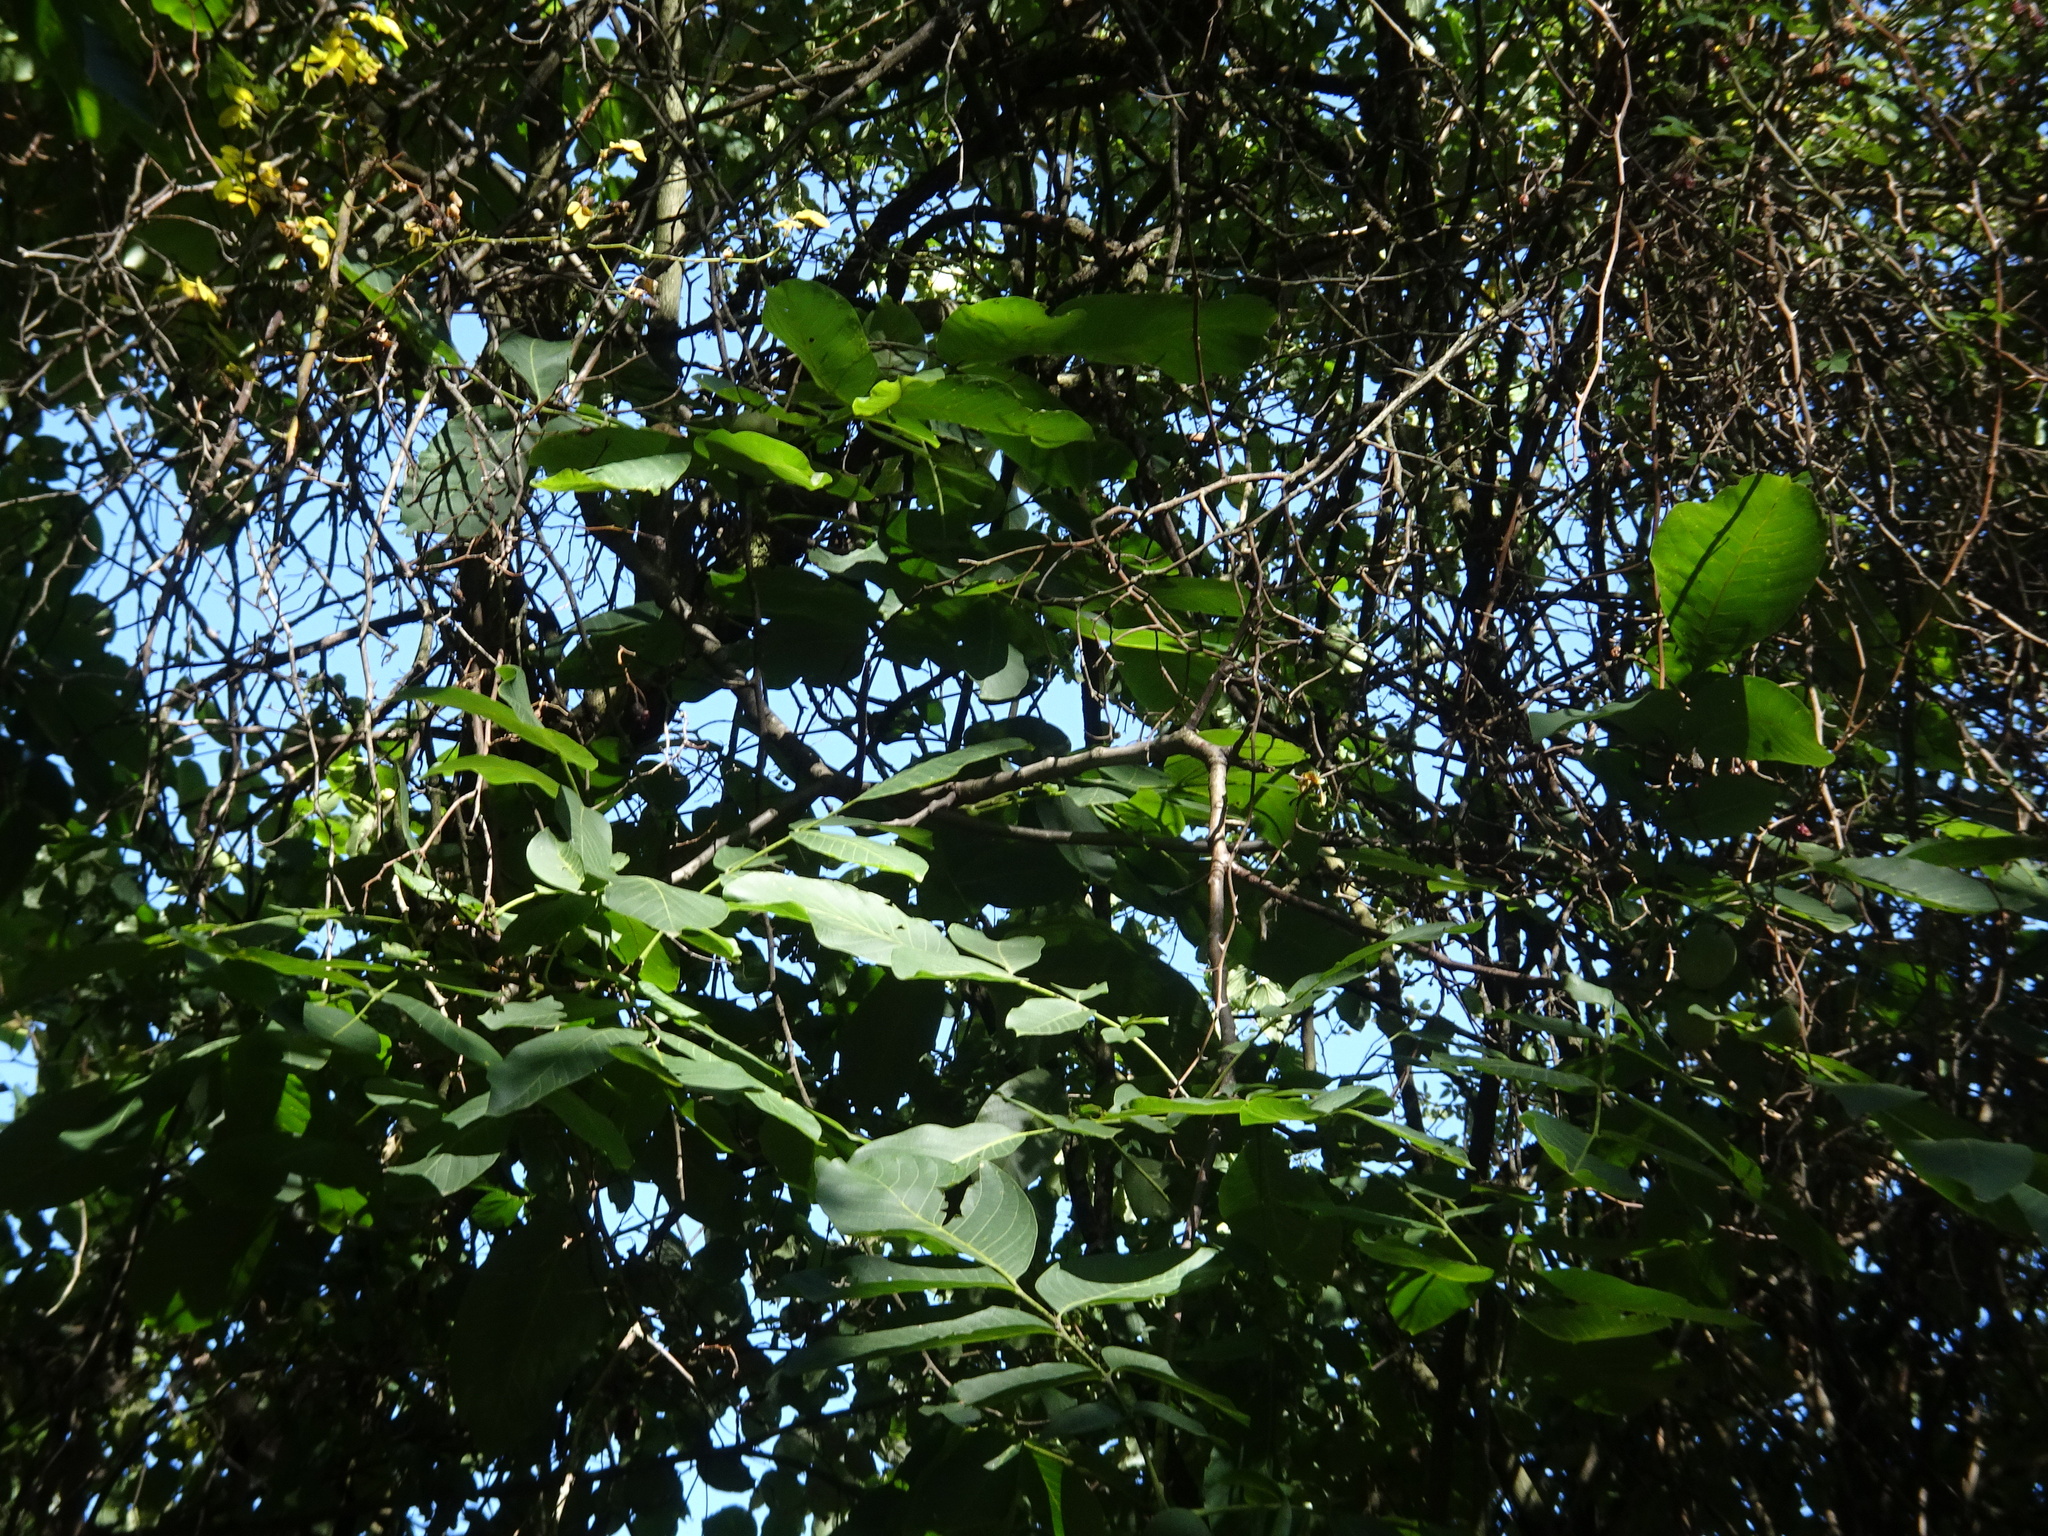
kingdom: Plantae
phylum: Tracheophyta
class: Magnoliopsida
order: Fagales
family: Juglandaceae
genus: Juglans
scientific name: Juglans regia
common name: Walnut
